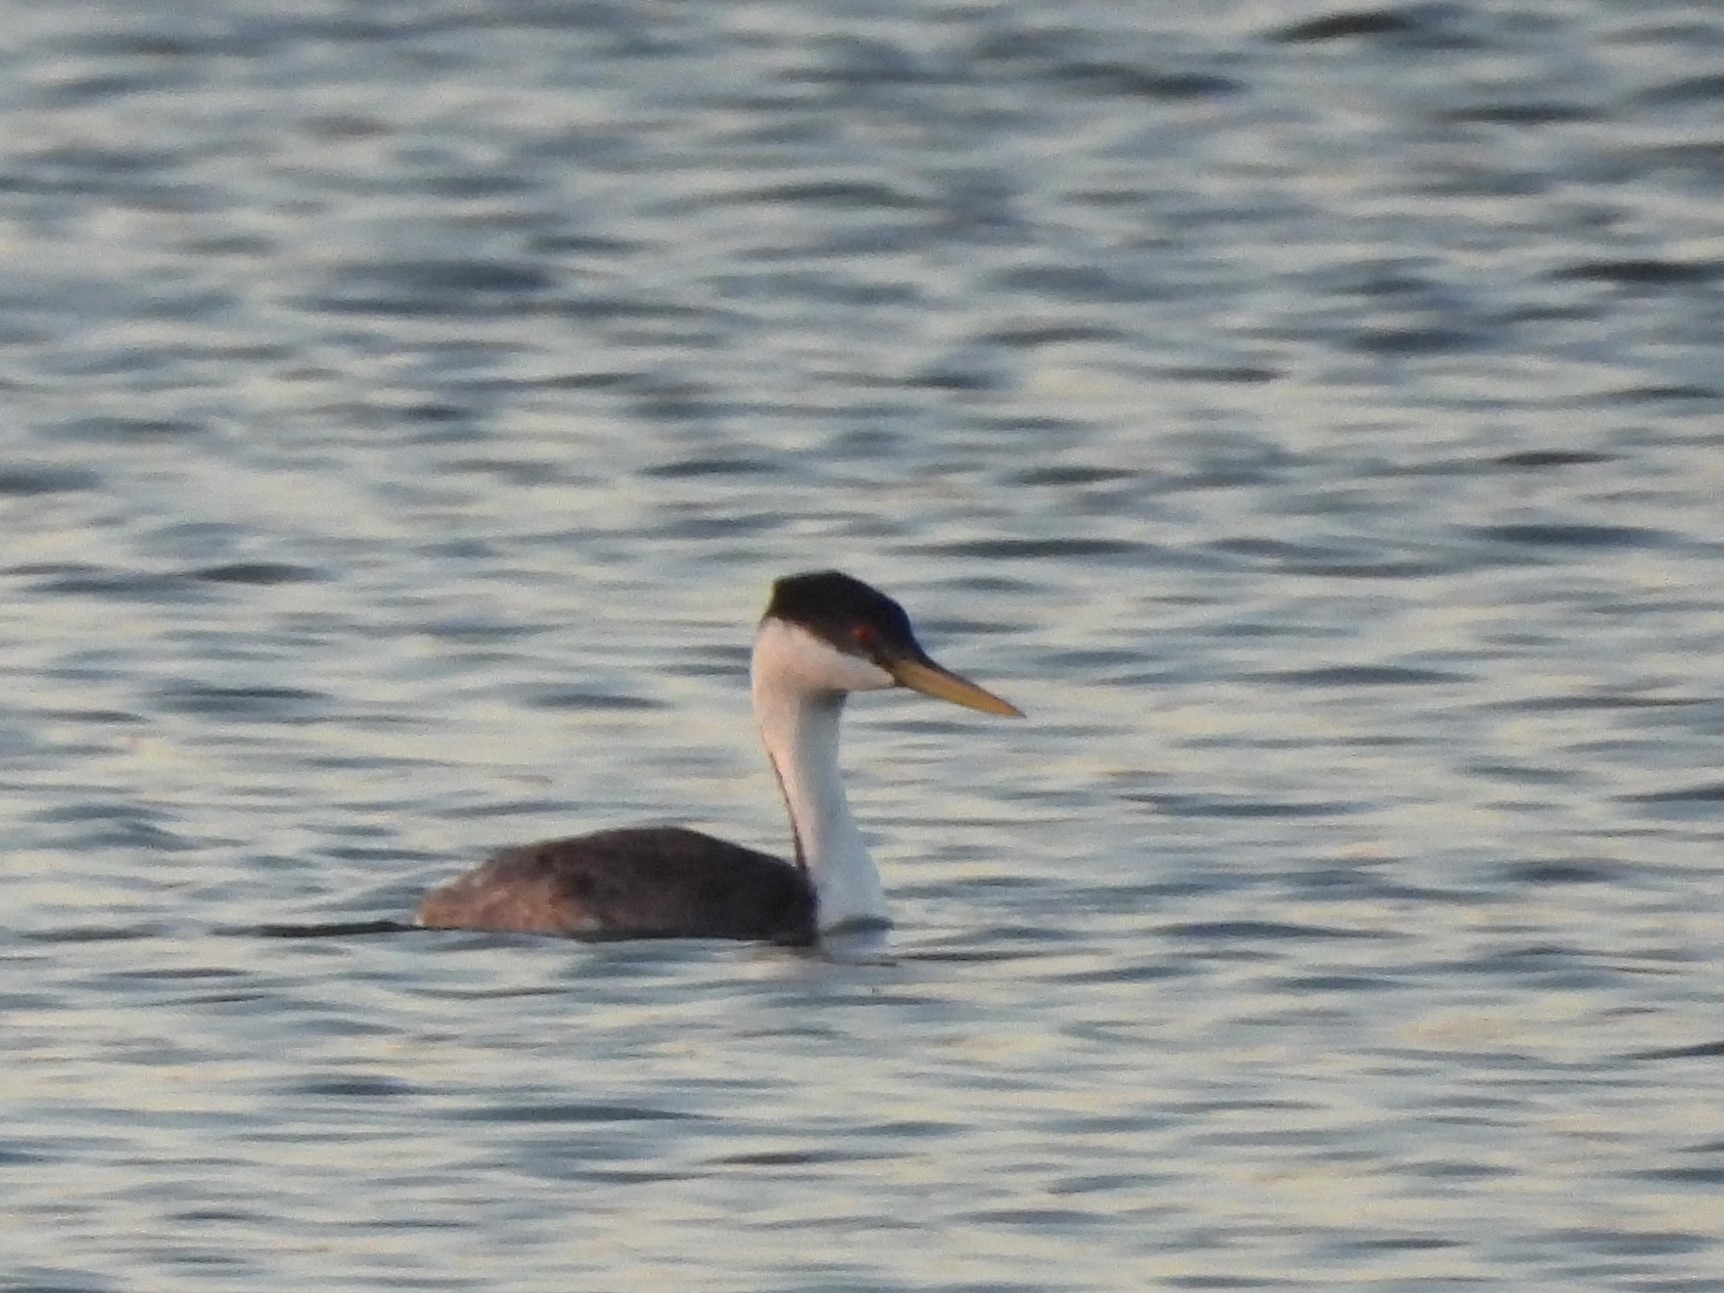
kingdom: Animalia
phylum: Chordata
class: Aves
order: Podicipediformes
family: Podicipedidae
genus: Aechmophorus
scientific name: Aechmophorus occidentalis
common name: Western grebe
